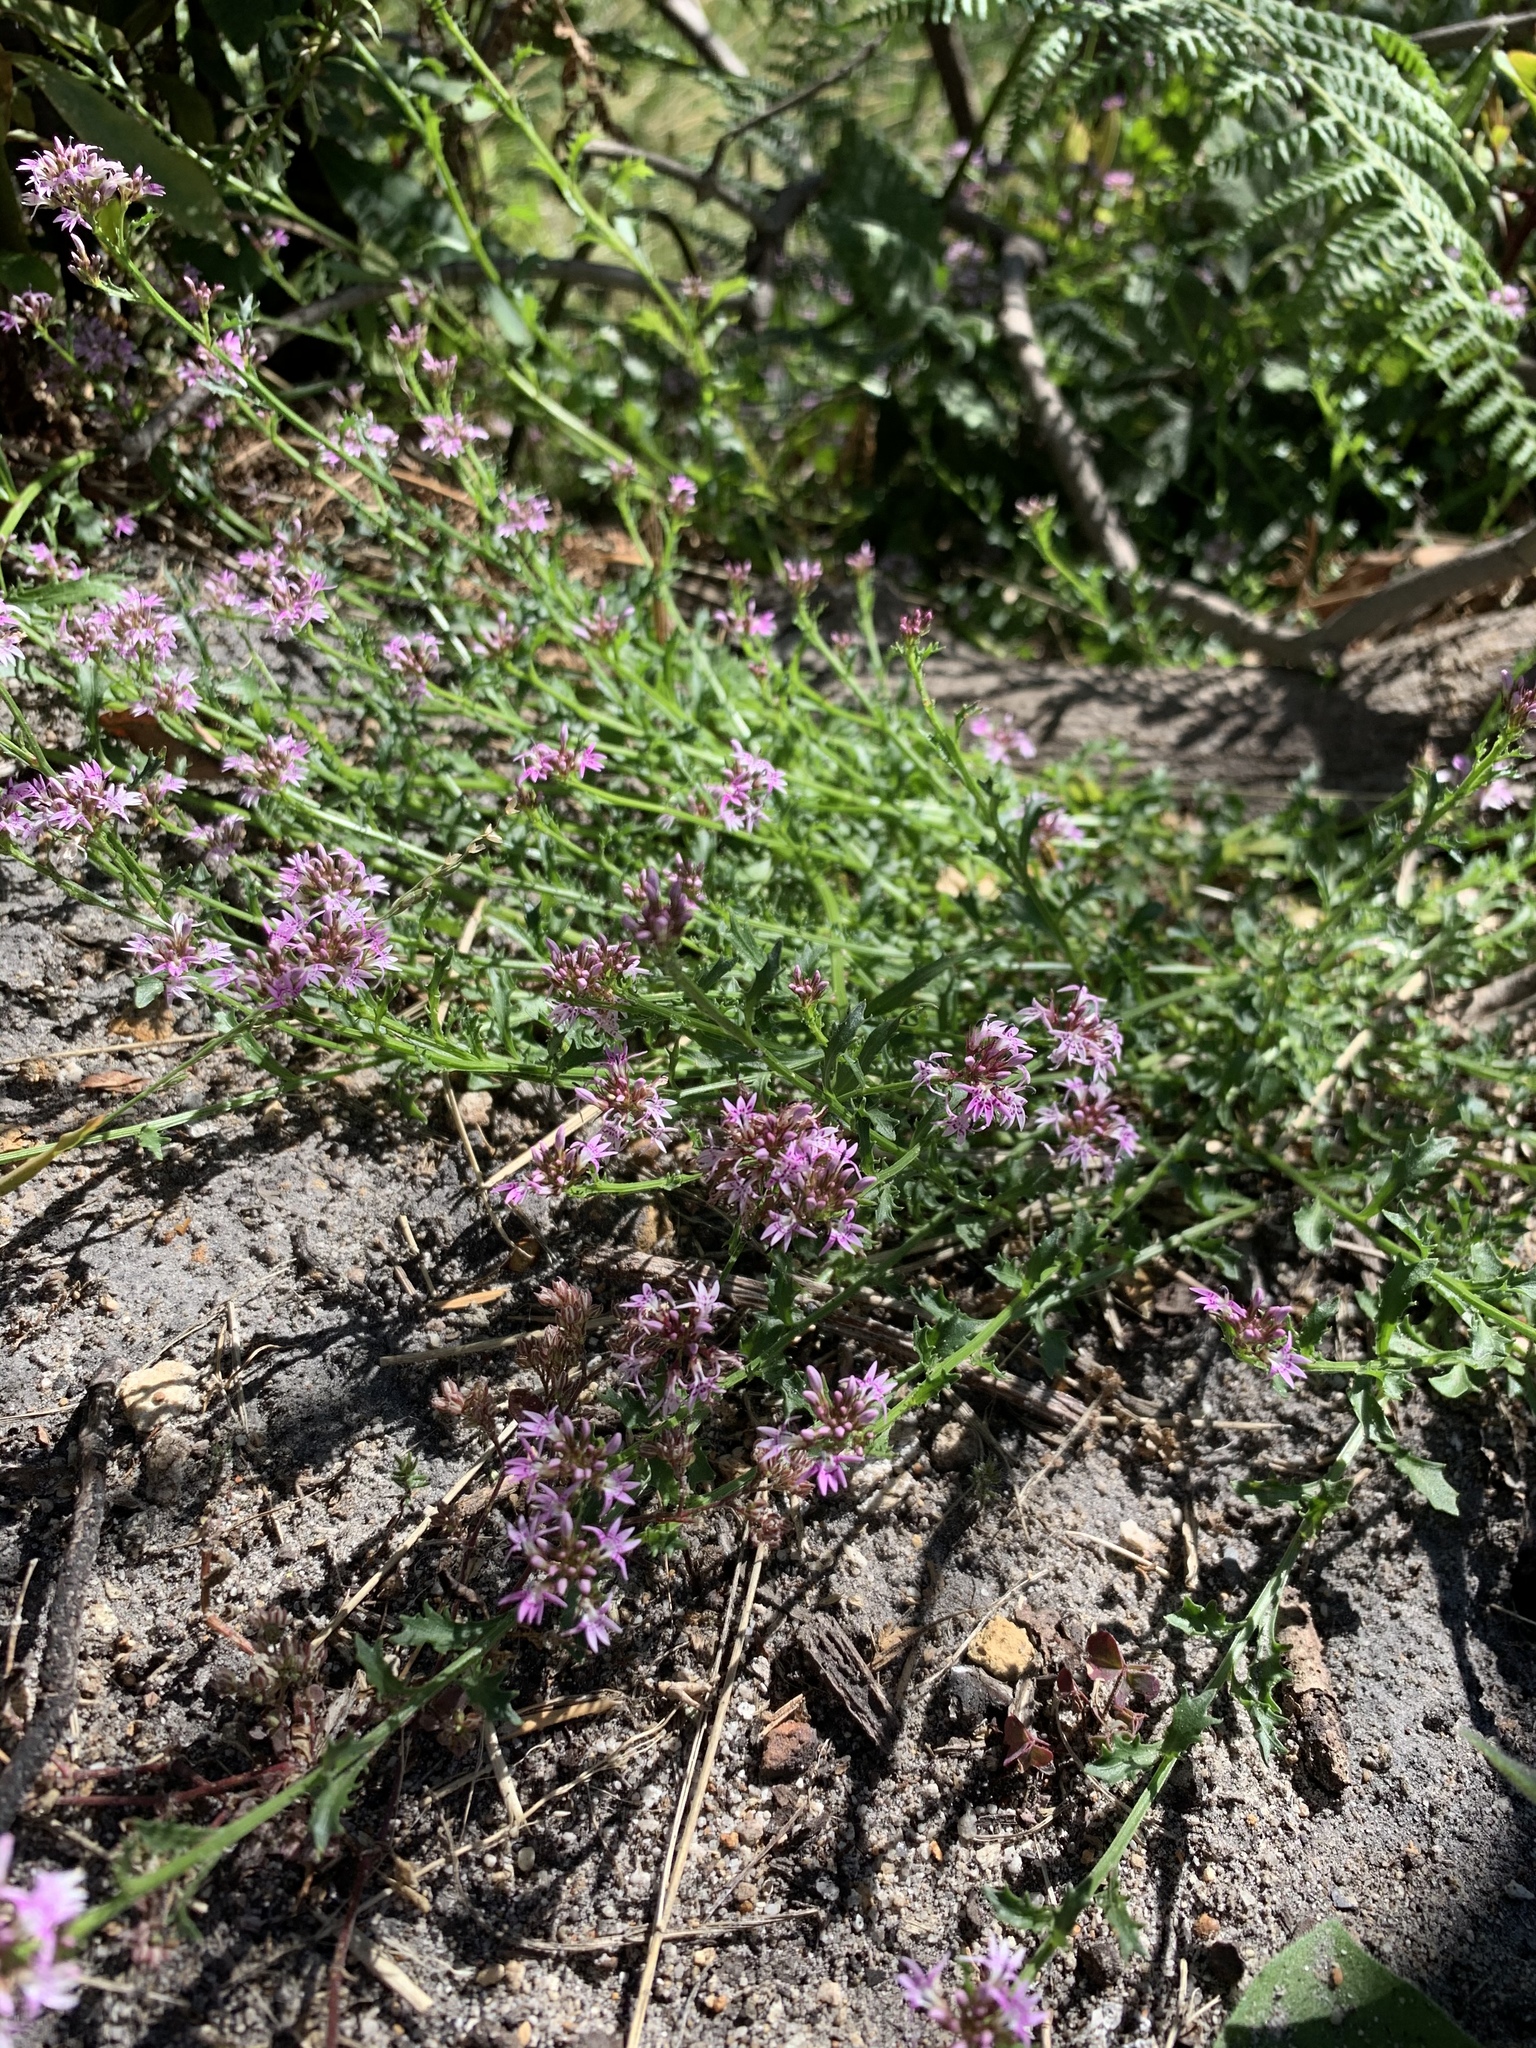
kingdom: Plantae
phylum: Tracheophyta
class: Magnoliopsida
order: Asterales
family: Campanulaceae
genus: Lobelia
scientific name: Lobelia jasionoides
